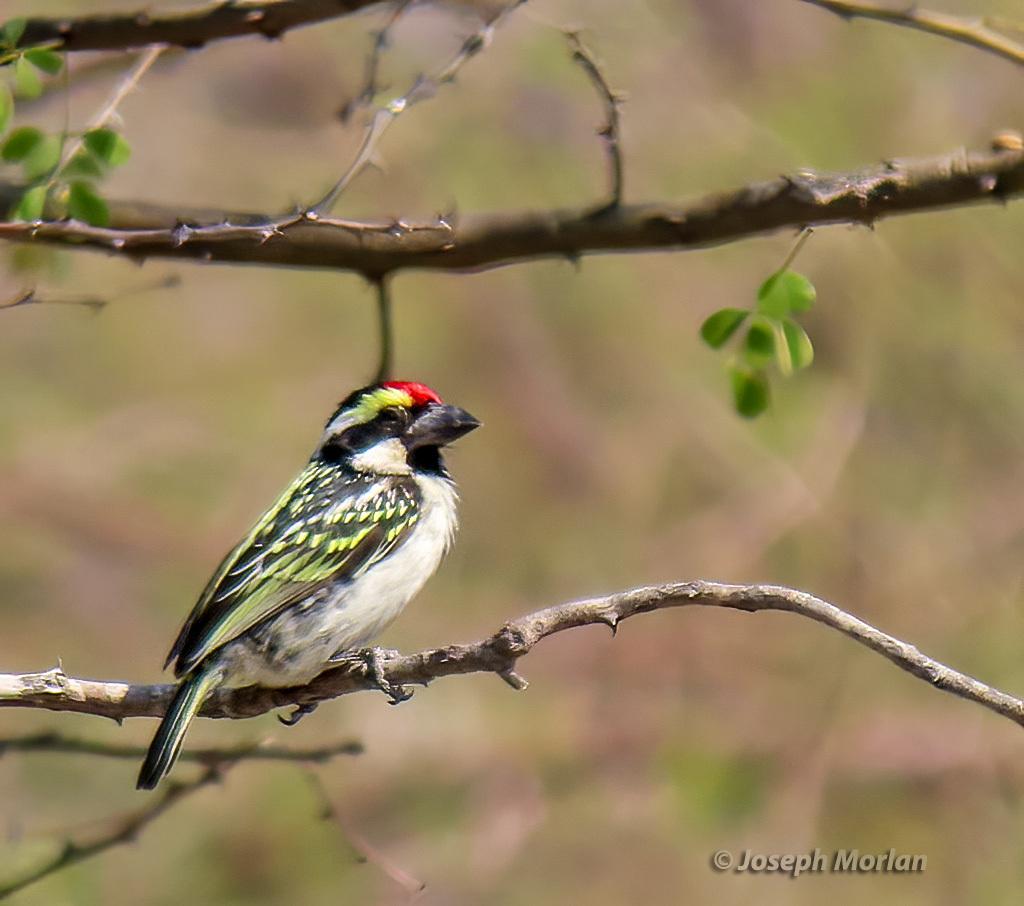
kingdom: Animalia
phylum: Chordata
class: Aves
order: Piciformes
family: Lybiidae
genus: Tricholaema
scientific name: Tricholaema leucomelas
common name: Acacia pied barbet
